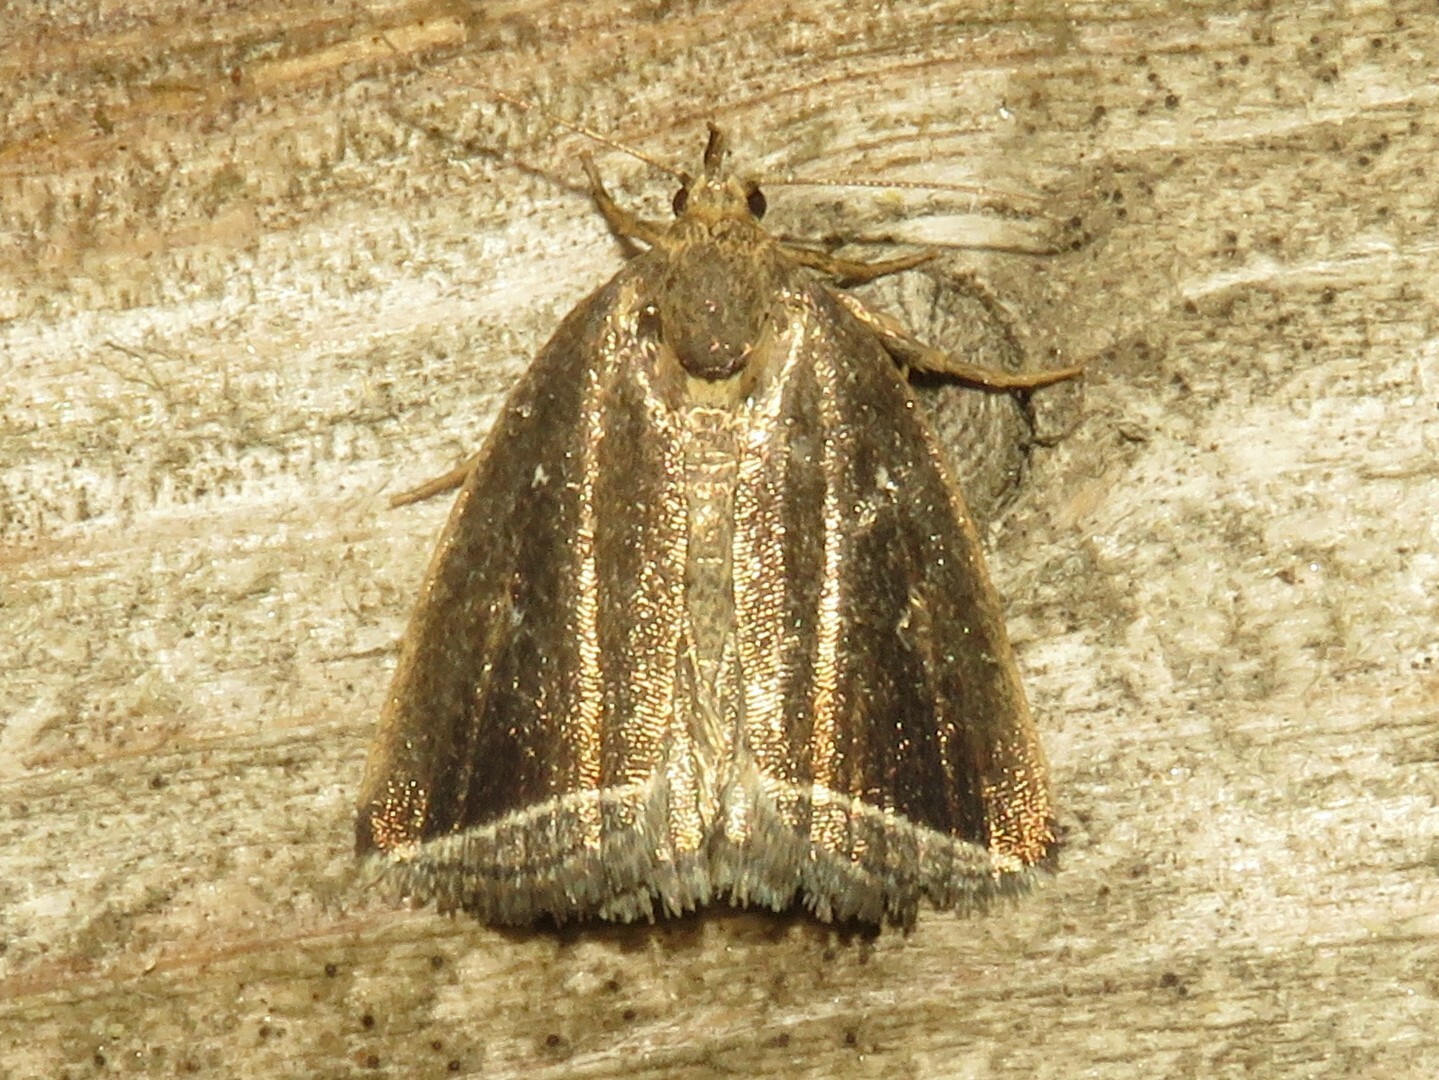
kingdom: Animalia
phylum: Arthropoda
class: Insecta
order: Lepidoptera
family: Erebidae
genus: Capis
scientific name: Capis curvata
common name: Curved halter moth
